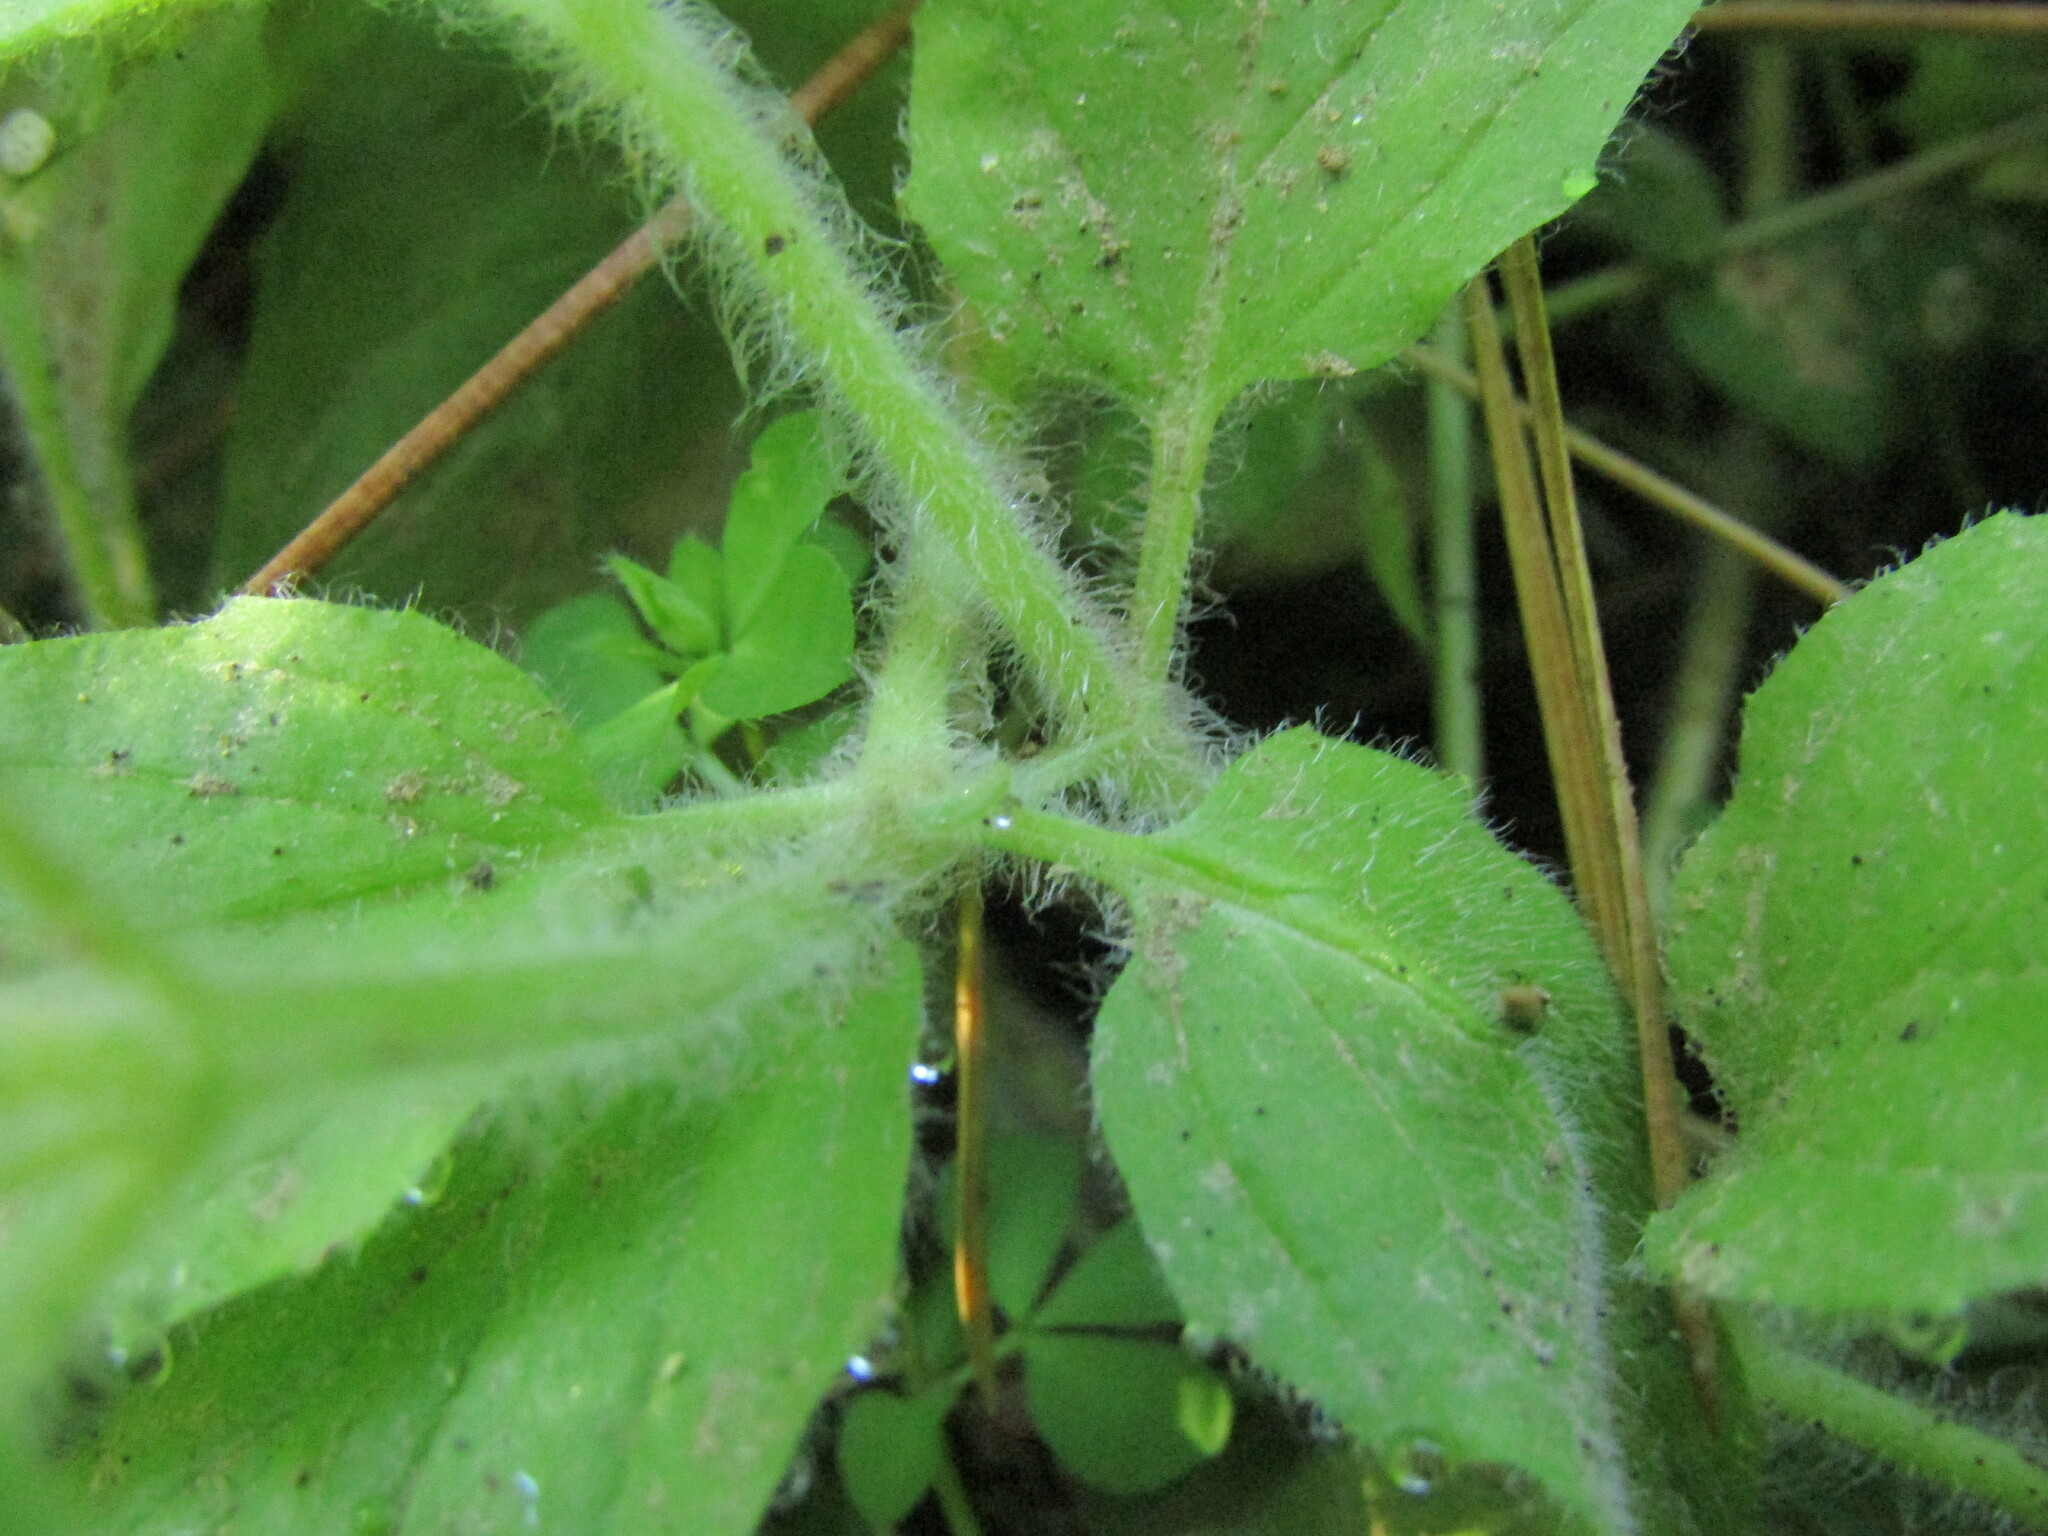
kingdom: Plantae
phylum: Tracheophyta
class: Magnoliopsida
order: Lamiales
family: Phrymaceae
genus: Erythranthe
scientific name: Erythranthe moschata
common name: Muskflower
